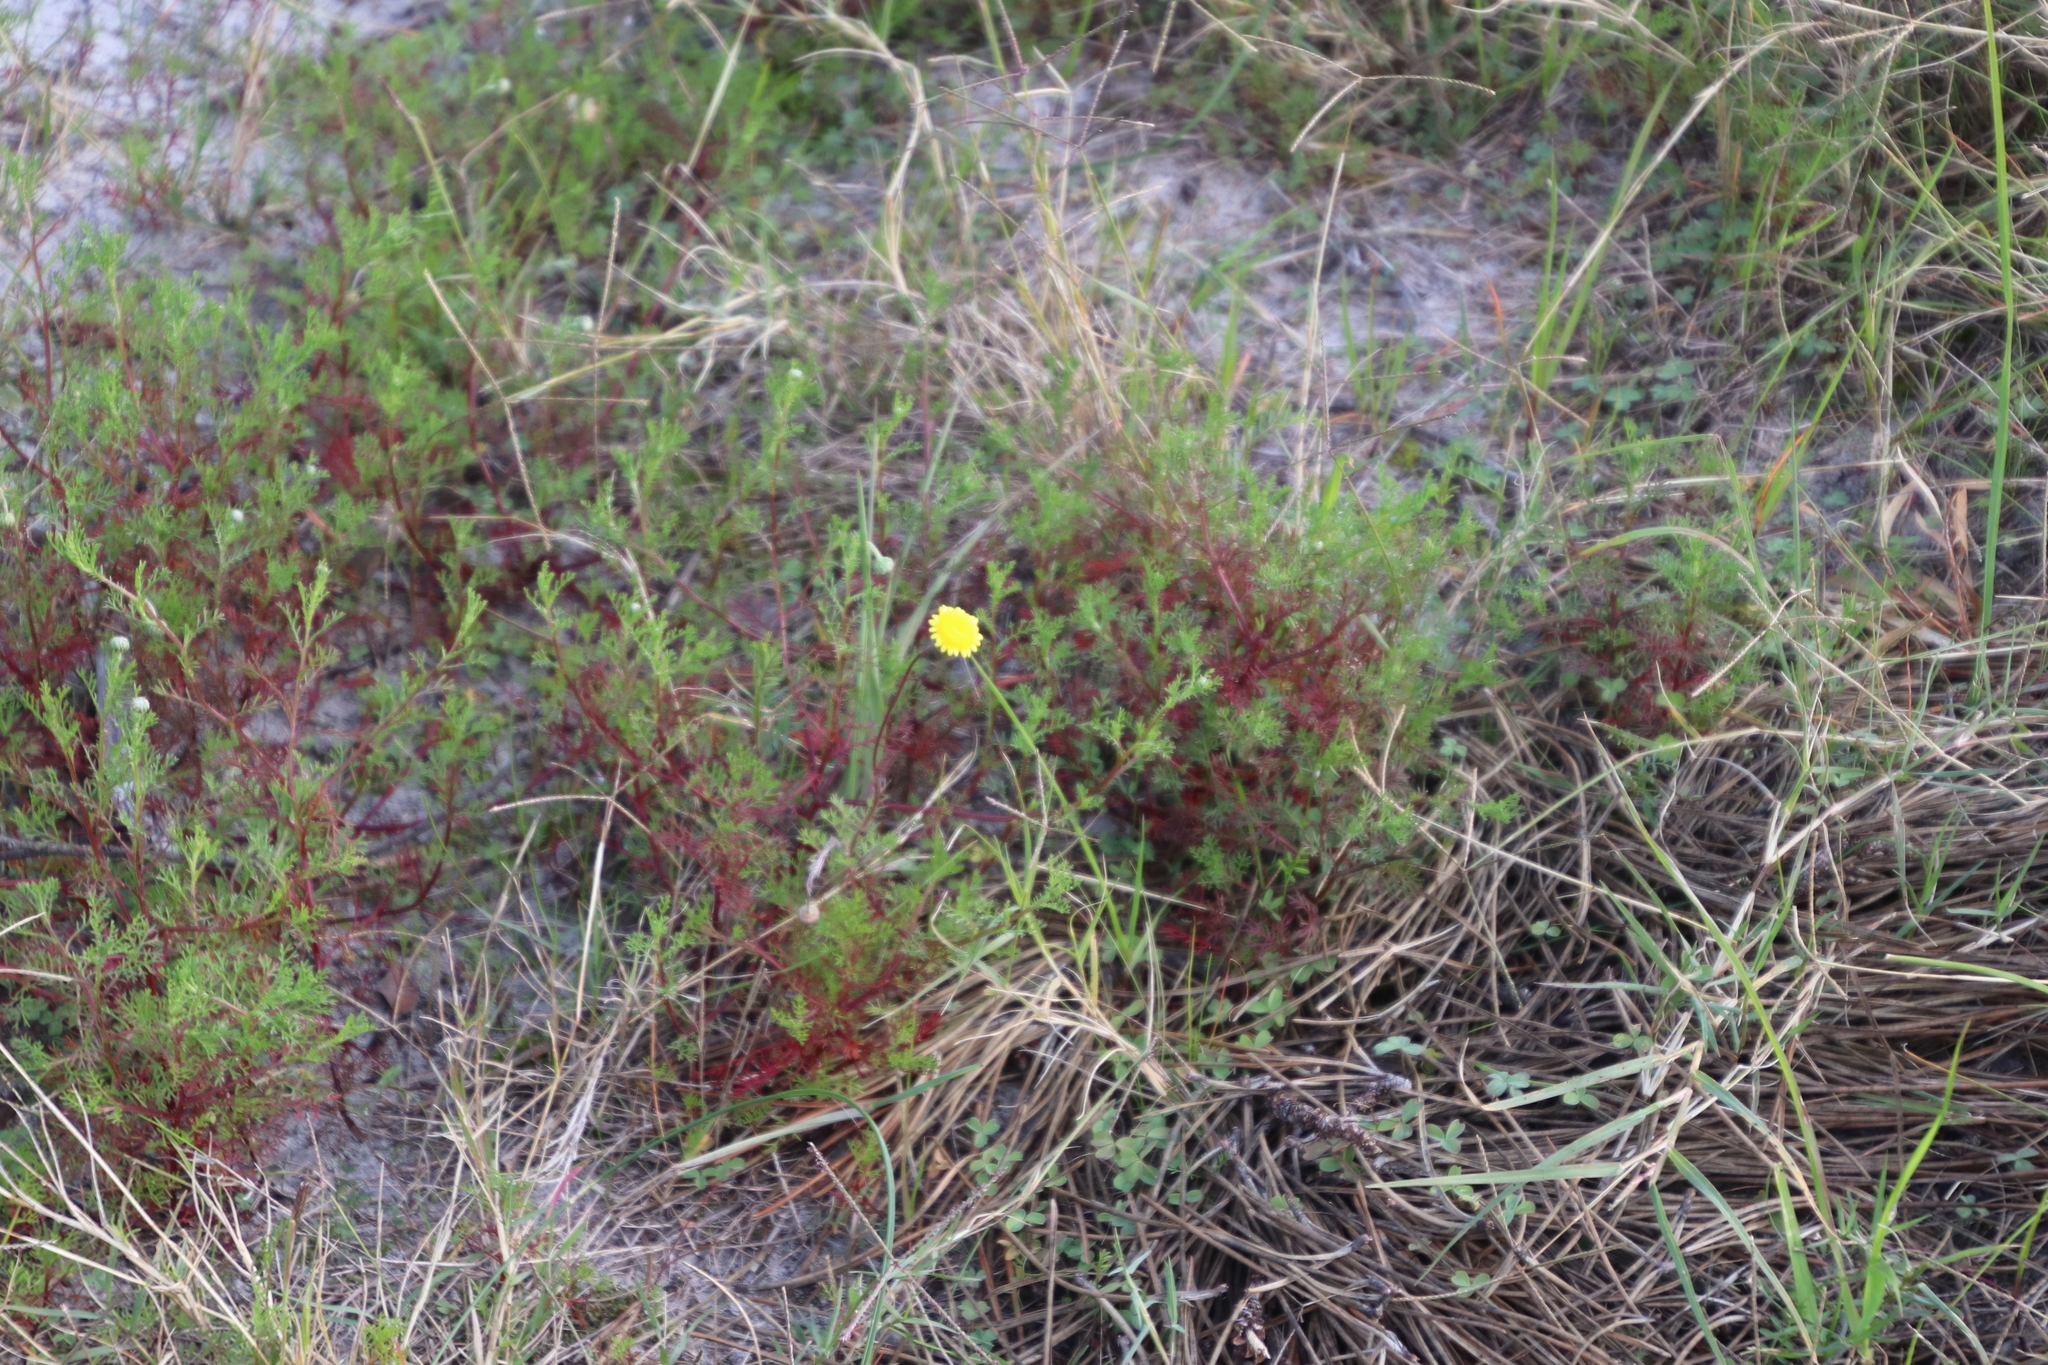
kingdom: Plantae
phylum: Tracheophyta
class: Magnoliopsida
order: Asterales
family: Asteraceae
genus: Cotula
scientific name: Cotula pruinosa
